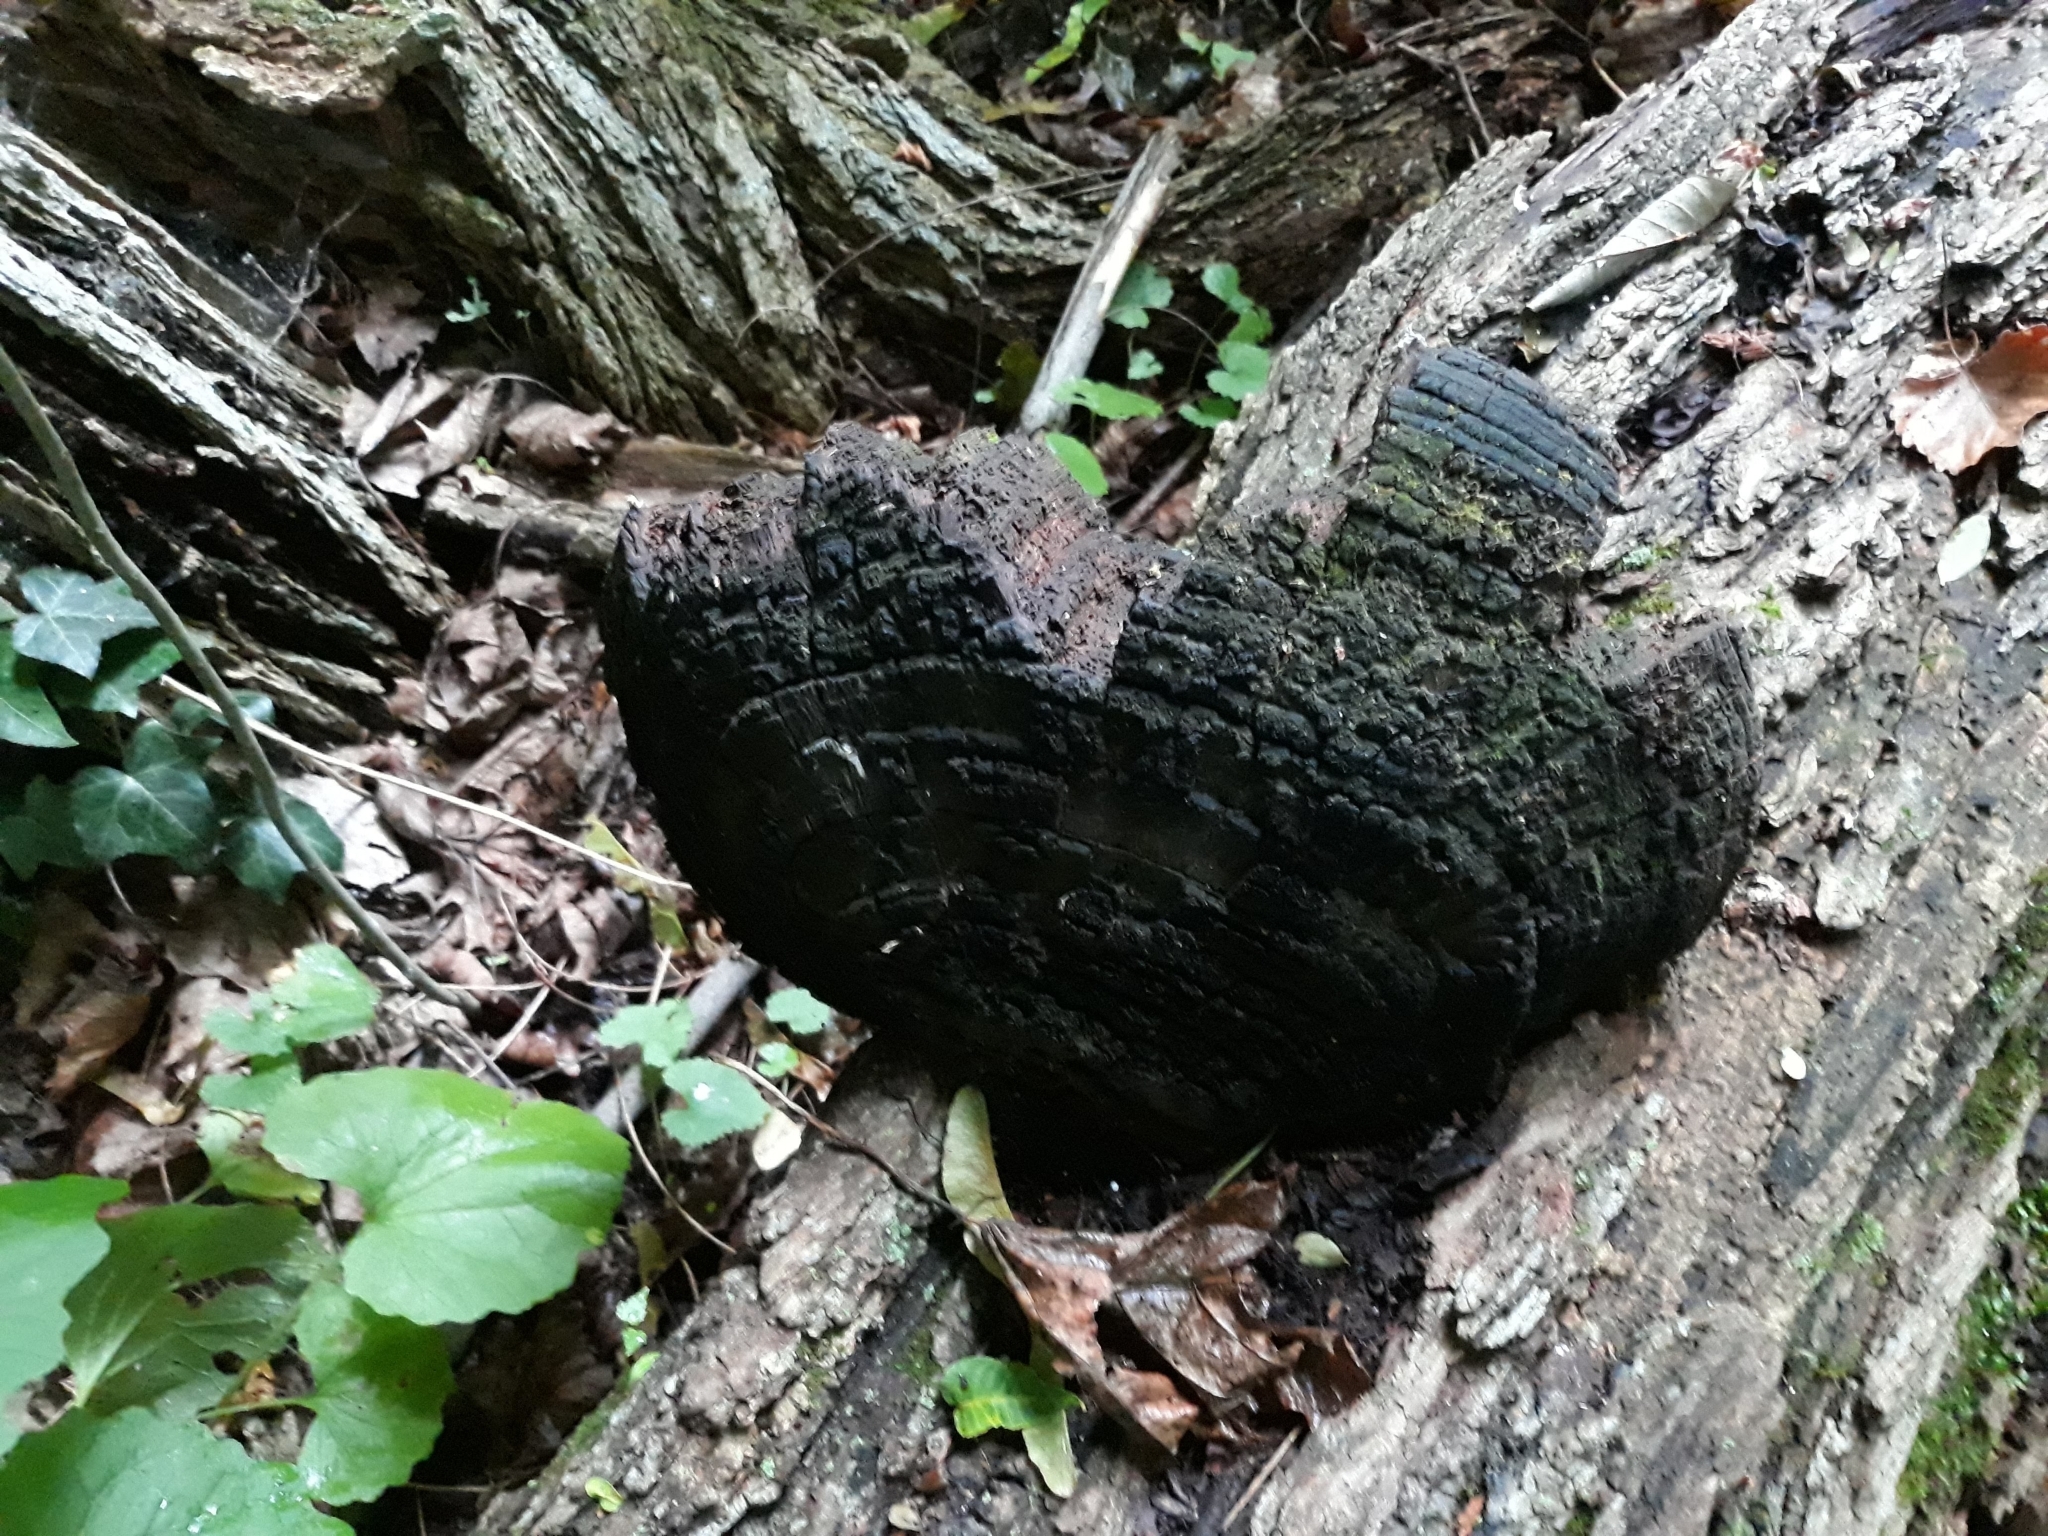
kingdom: Fungi
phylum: Basidiomycota
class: Agaricomycetes
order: Hymenochaetales
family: Hymenochaetaceae
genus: Phellinus
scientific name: Phellinus robiniae
